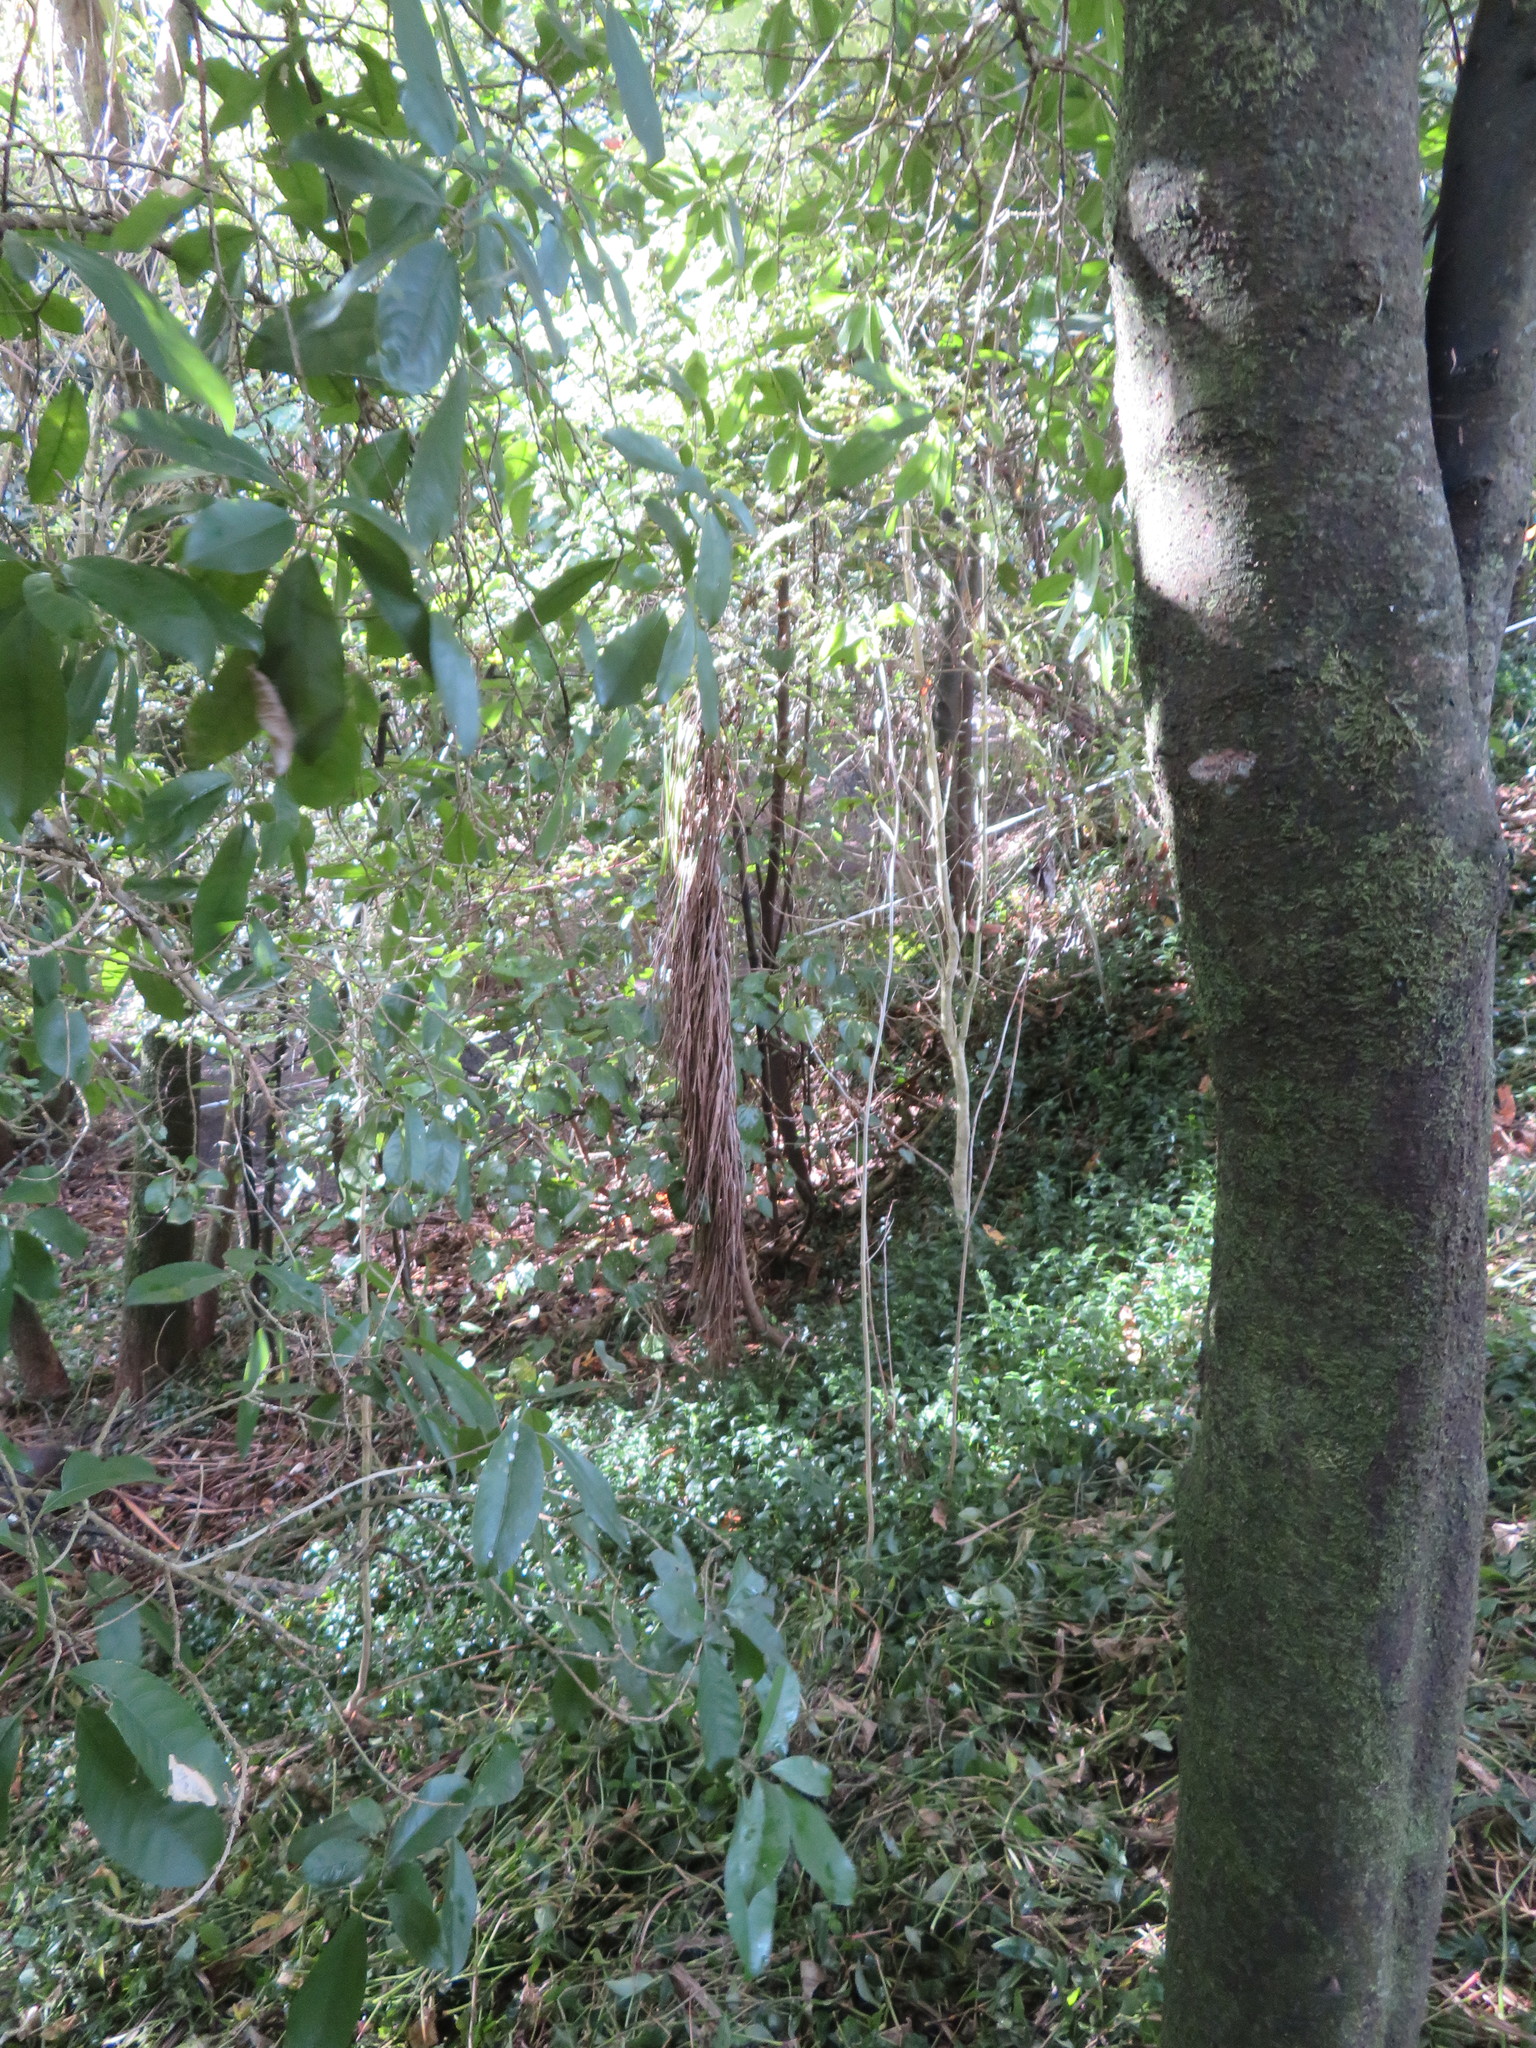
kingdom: Plantae
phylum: Tracheophyta
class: Liliopsida
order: Asparagales
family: Asparagaceae
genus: Cordyline
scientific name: Cordyline australis
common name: Cabbage-palm
